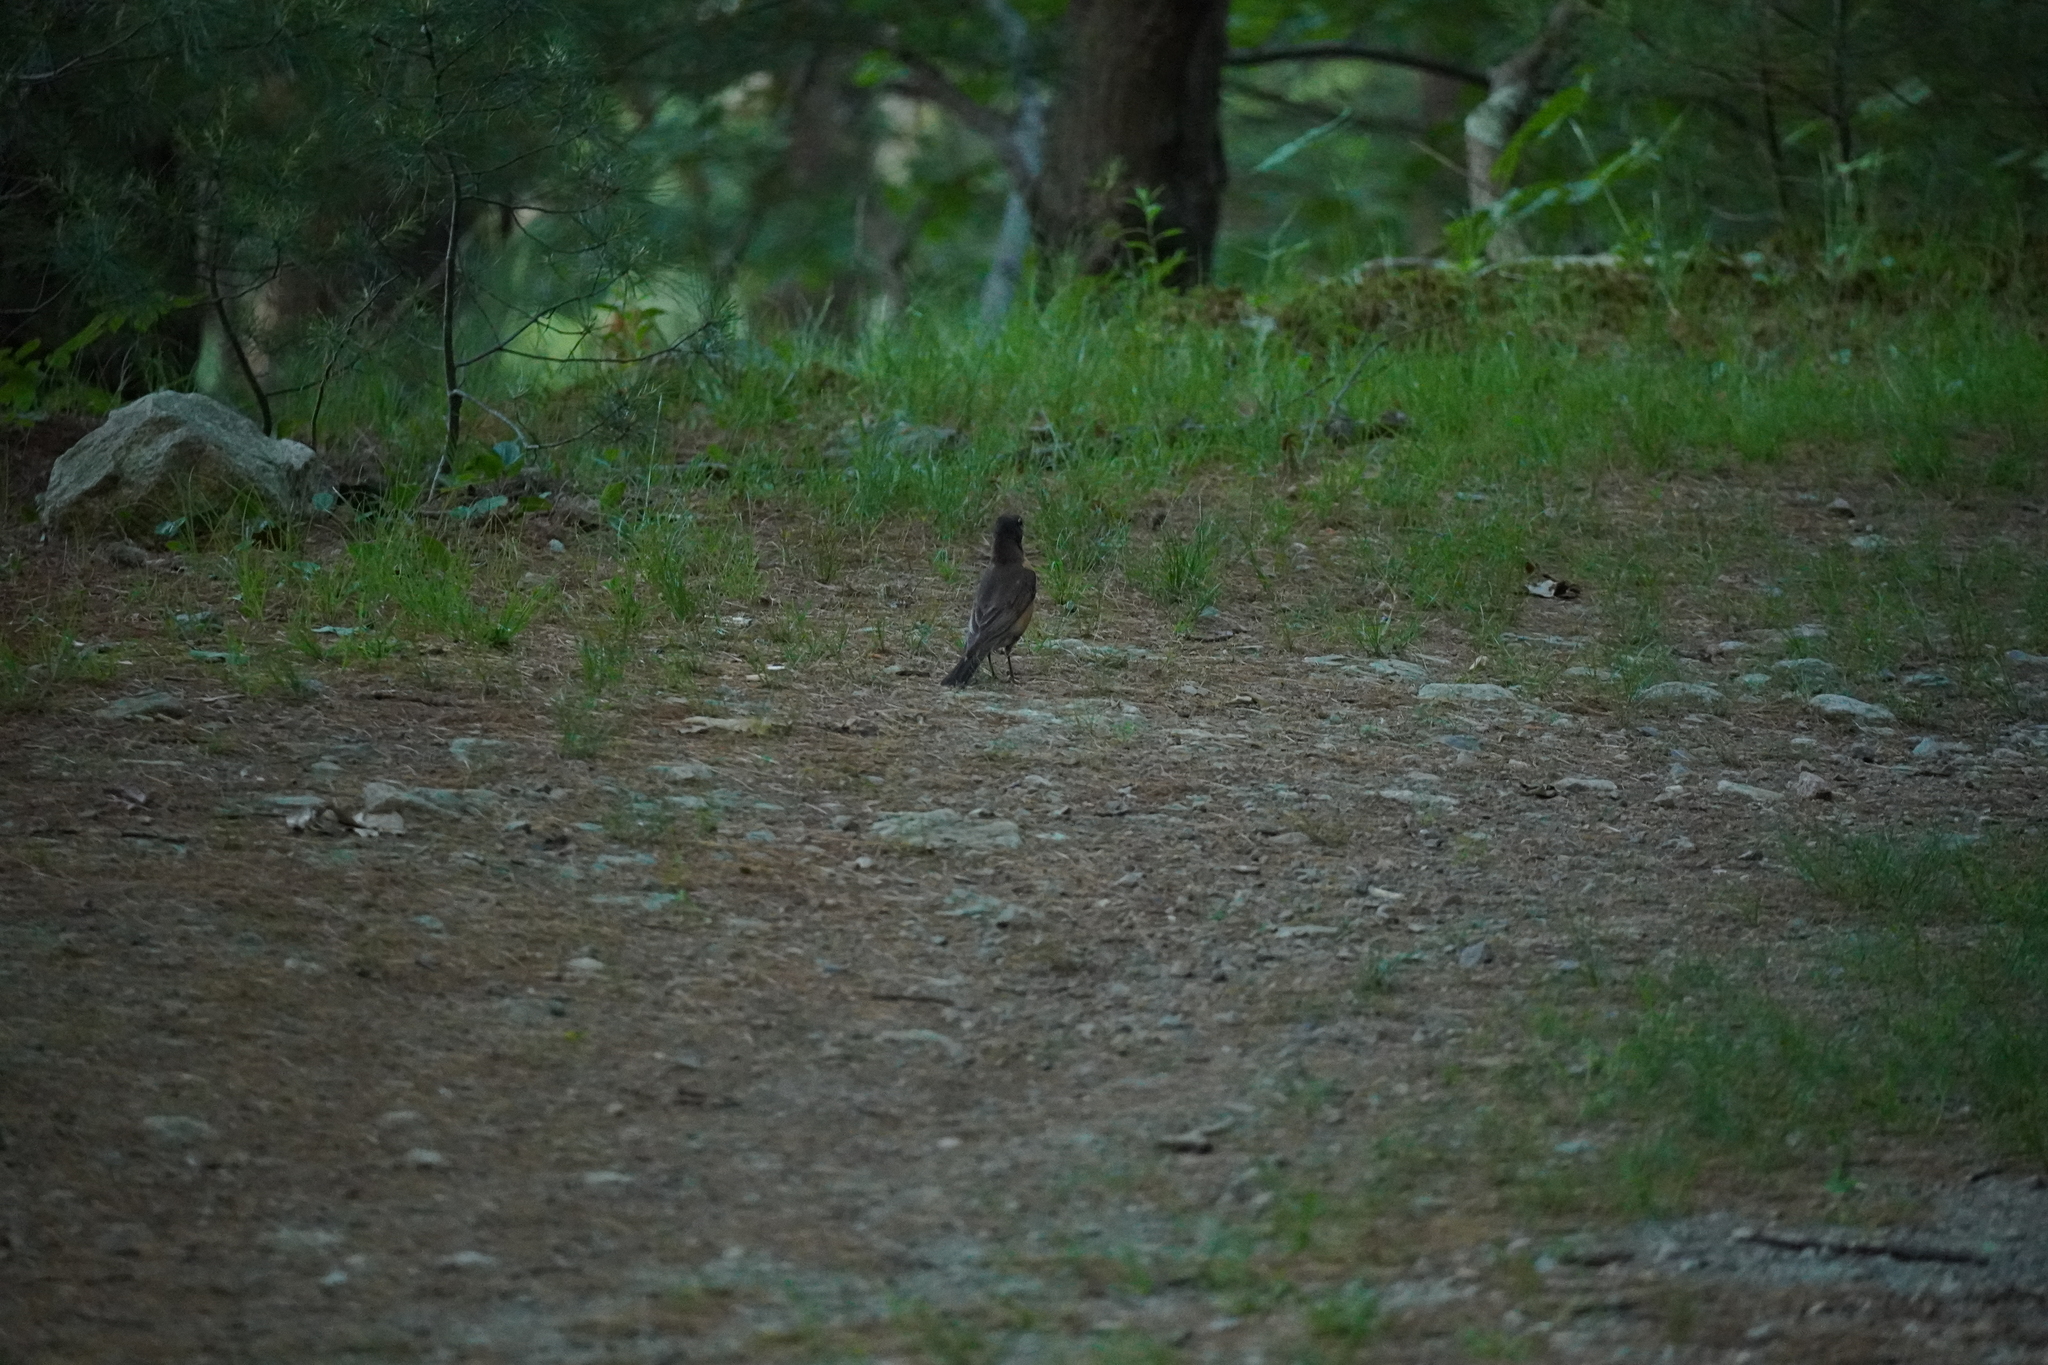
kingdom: Animalia
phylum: Chordata
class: Aves
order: Passeriformes
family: Turdidae
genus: Turdus
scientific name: Turdus migratorius
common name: American robin
